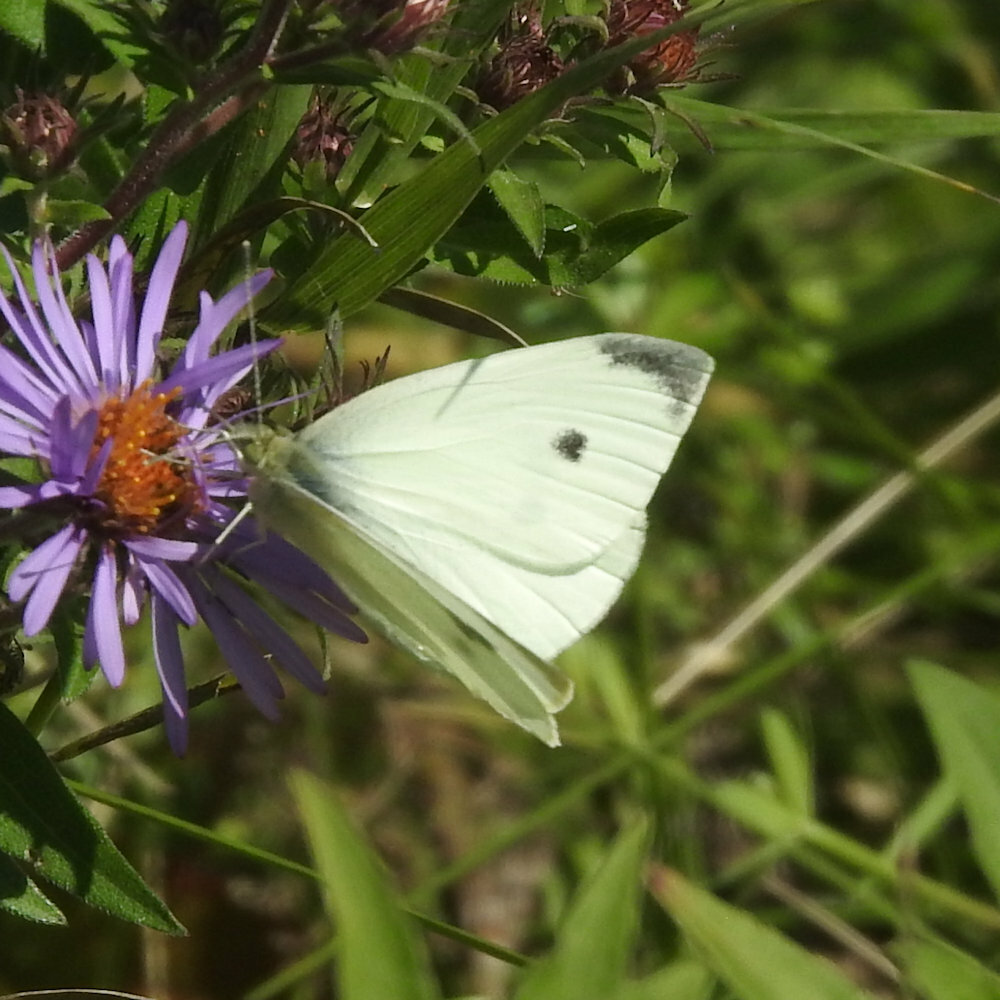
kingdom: Animalia
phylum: Arthropoda
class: Insecta
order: Lepidoptera
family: Pieridae
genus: Pieris
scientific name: Pieris rapae
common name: Small white
